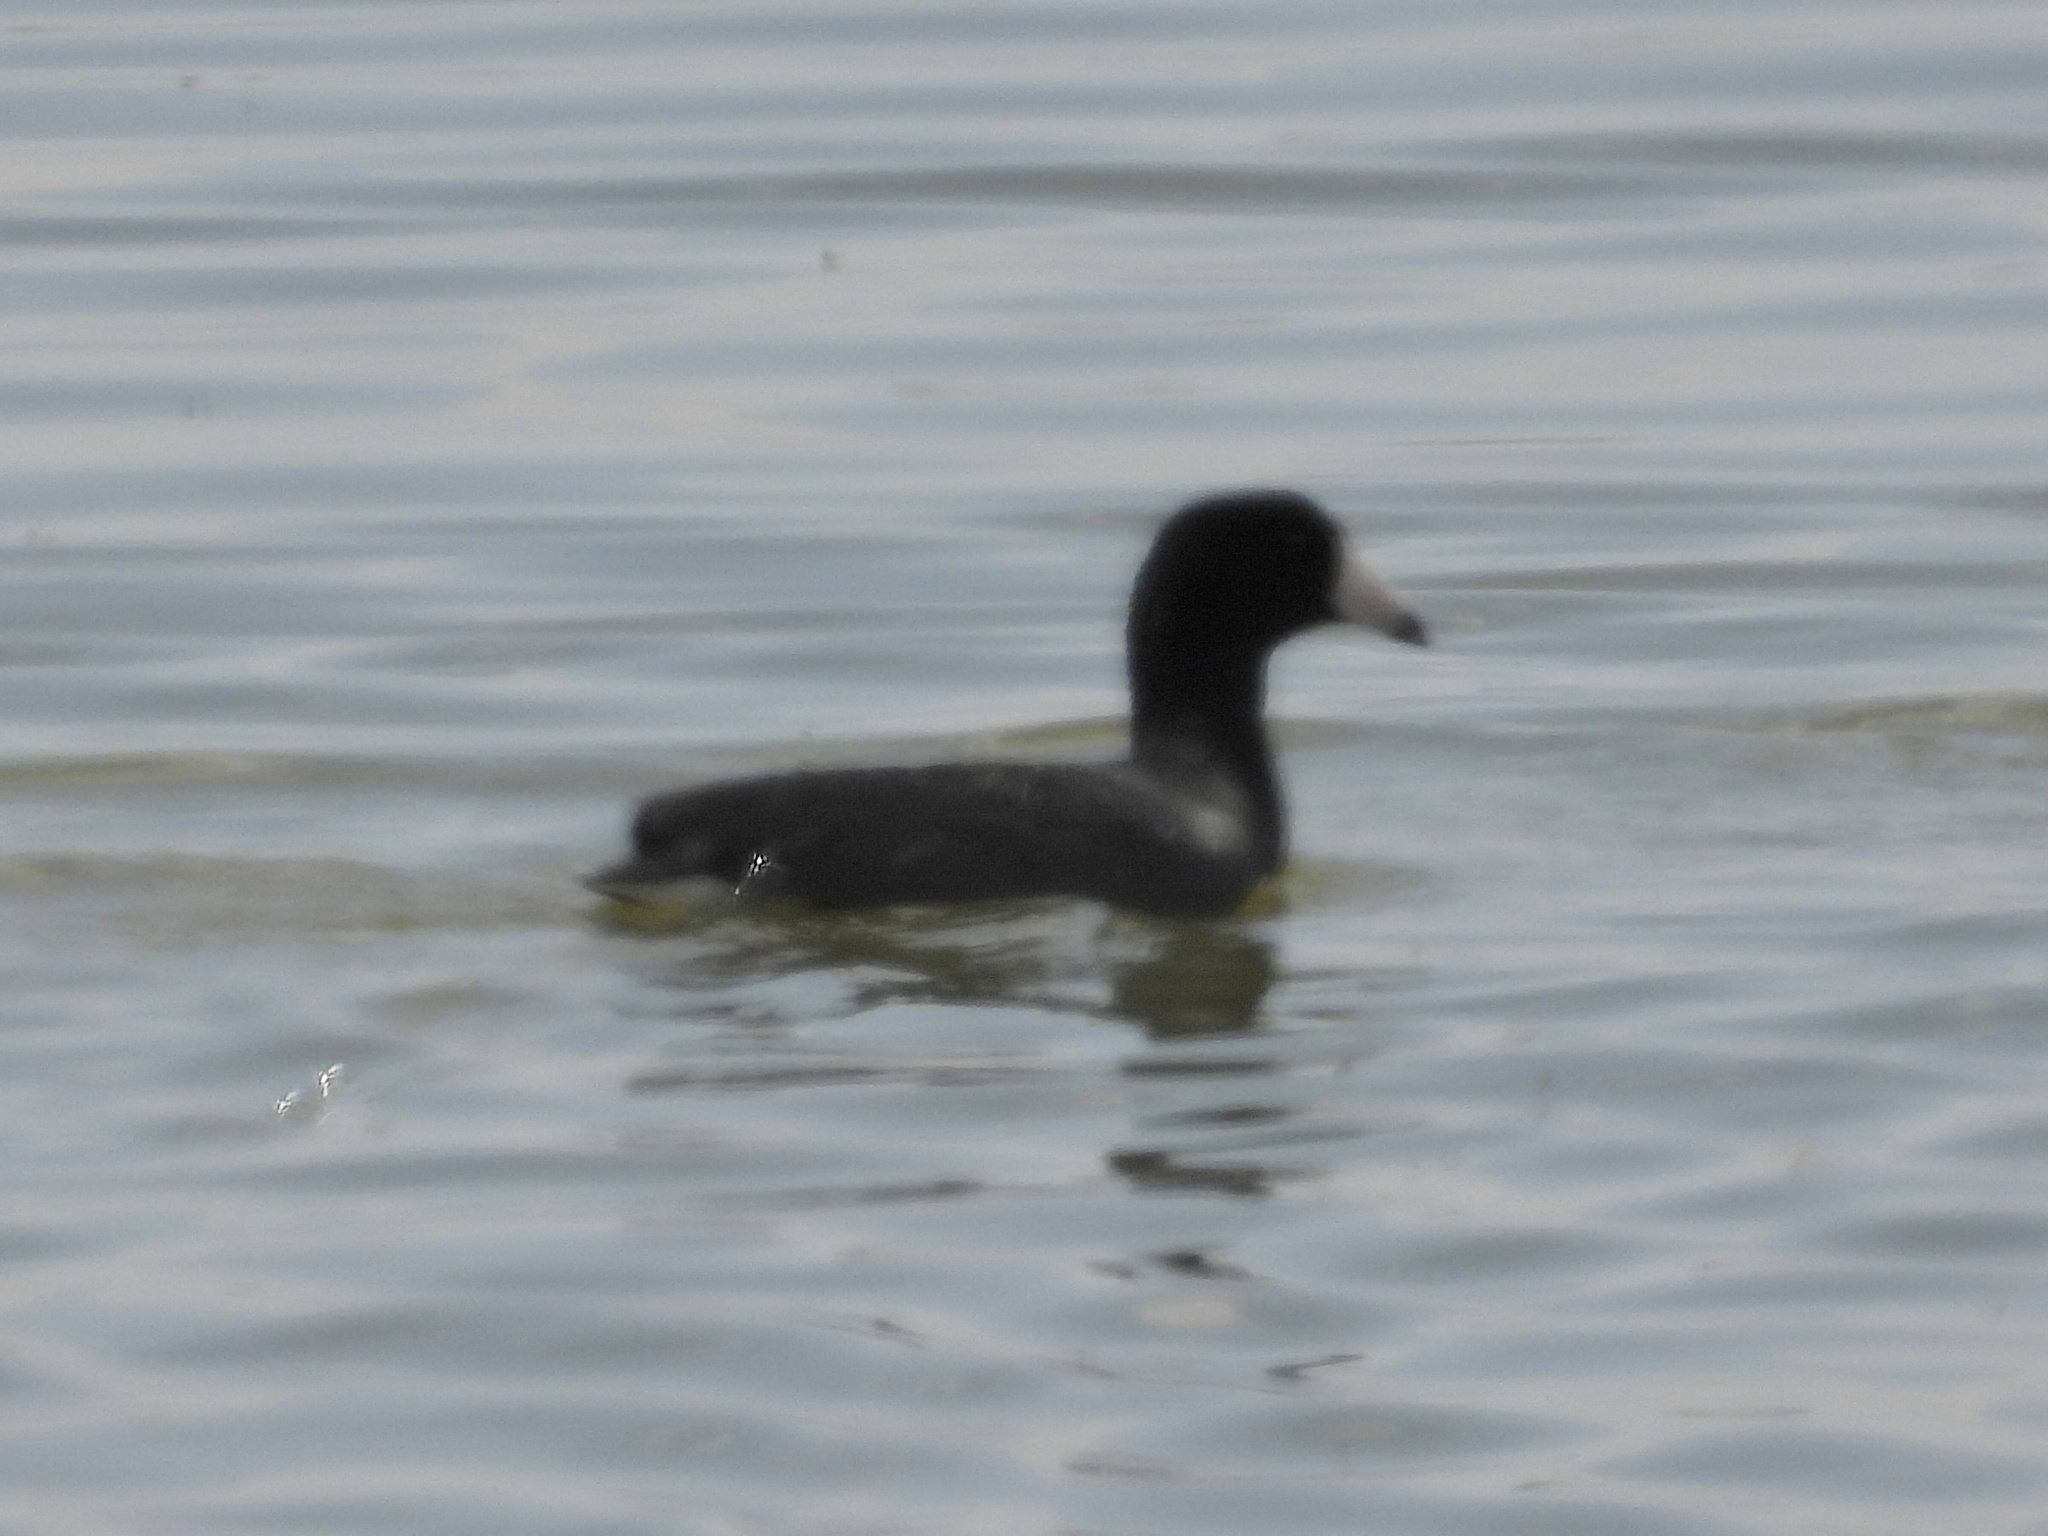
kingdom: Animalia
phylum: Chordata
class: Aves
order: Gruiformes
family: Rallidae
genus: Fulica
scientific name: Fulica americana
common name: American coot
